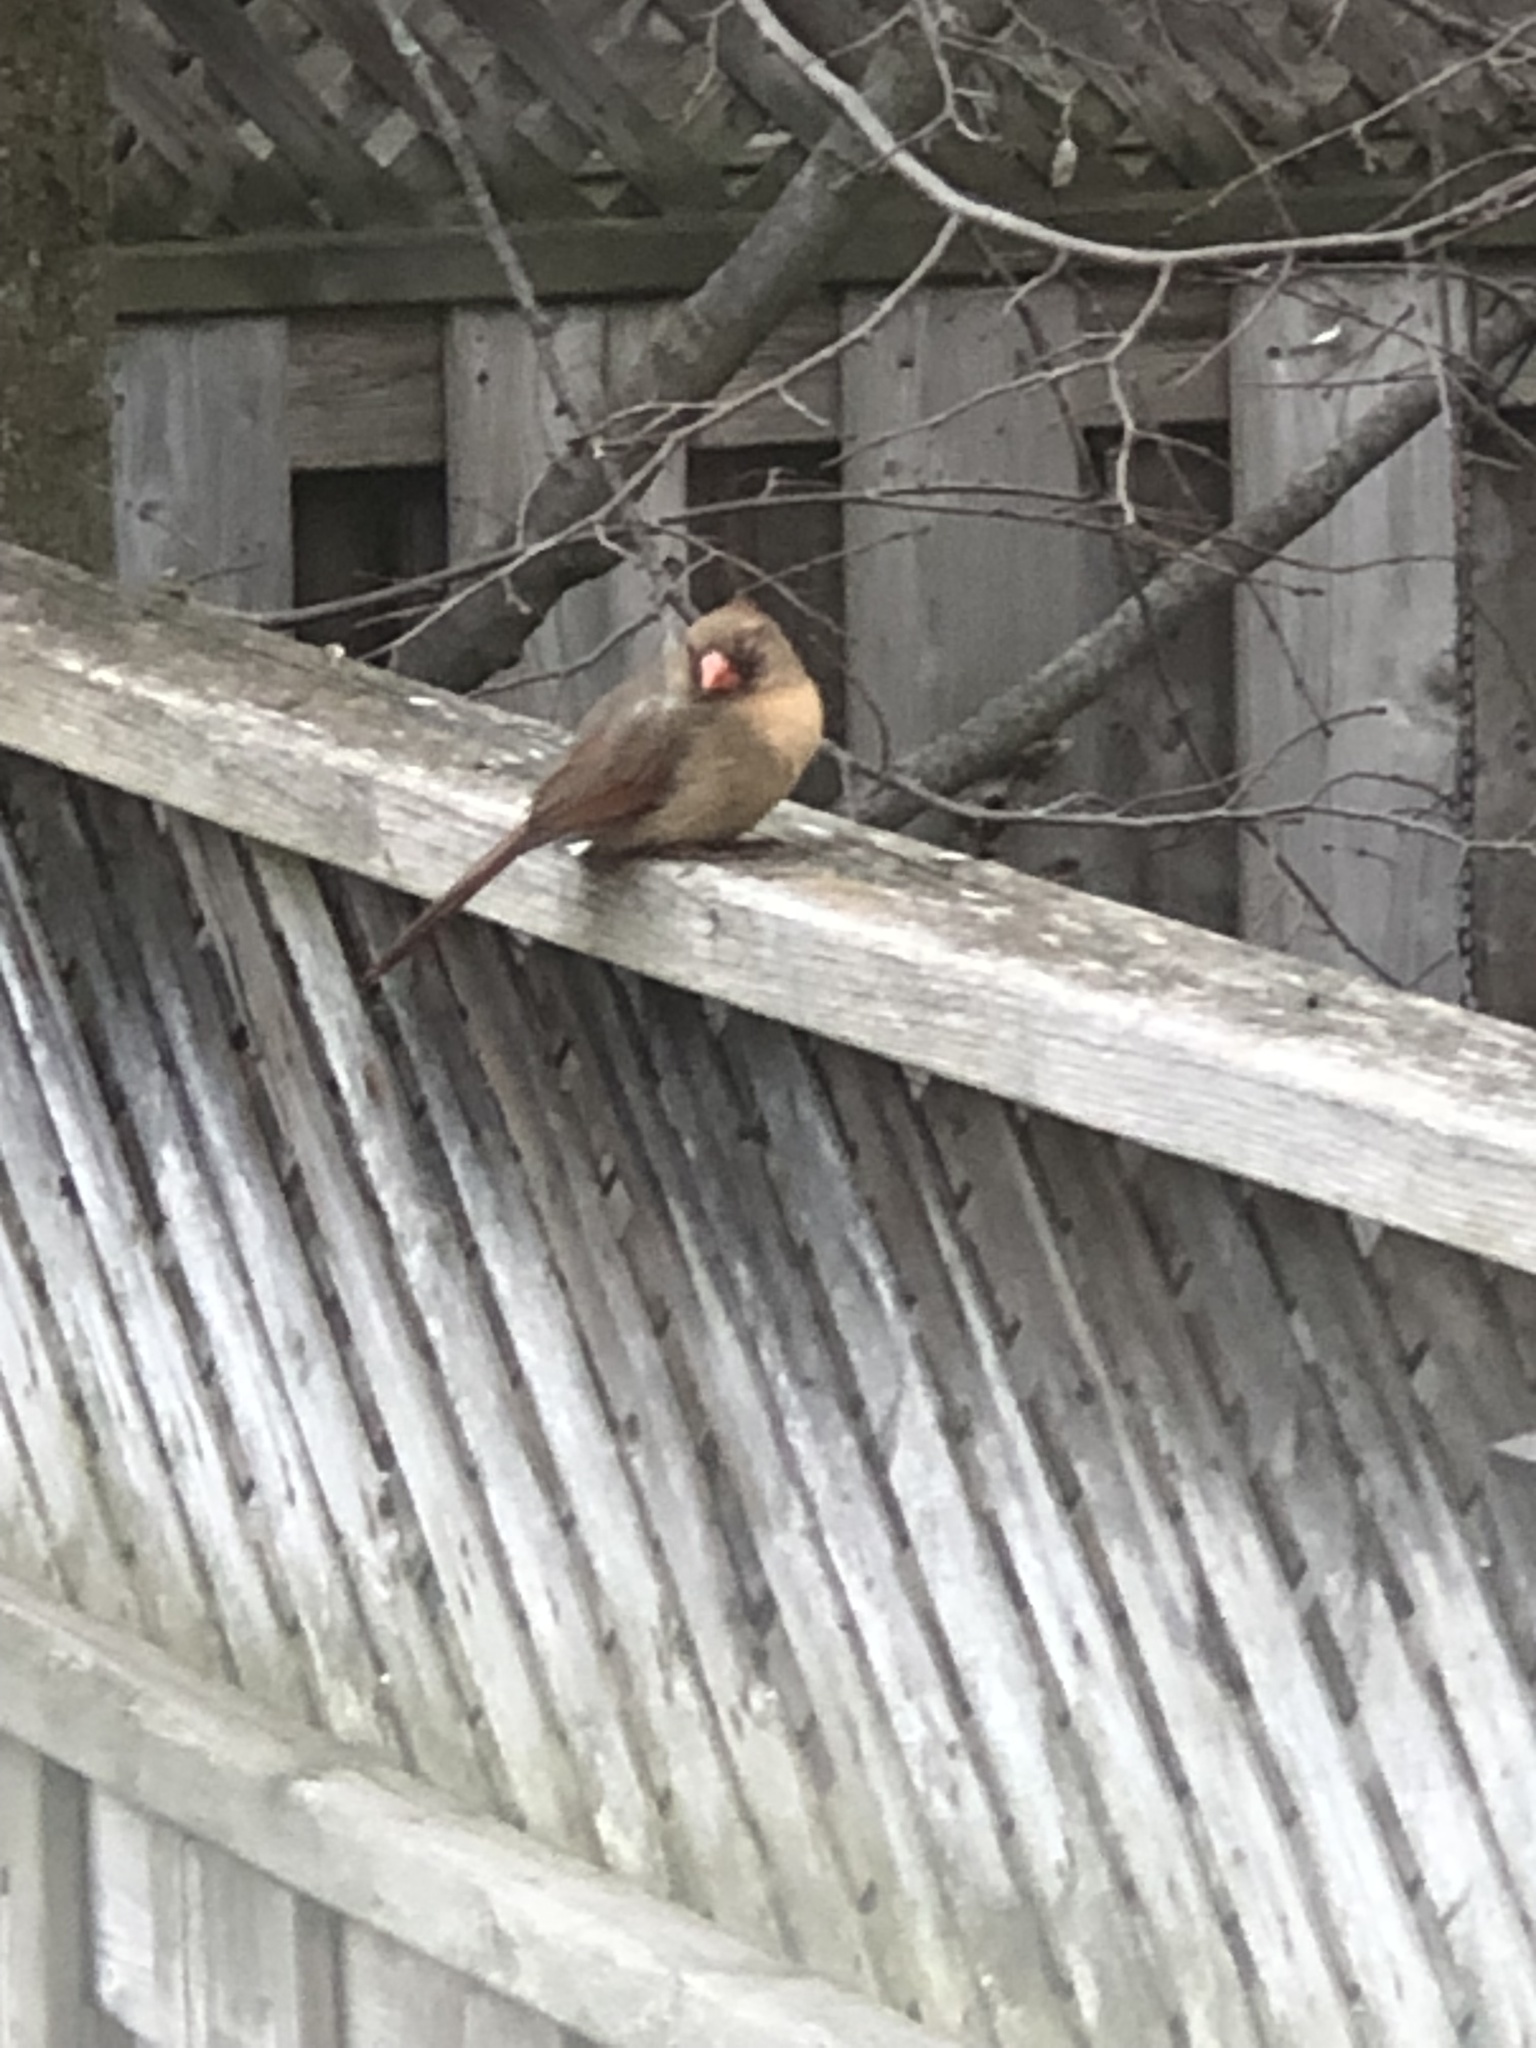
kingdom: Animalia
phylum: Chordata
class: Aves
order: Passeriformes
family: Cardinalidae
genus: Cardinalis
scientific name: Cardinalis cardinalis
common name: Northern cardinal
